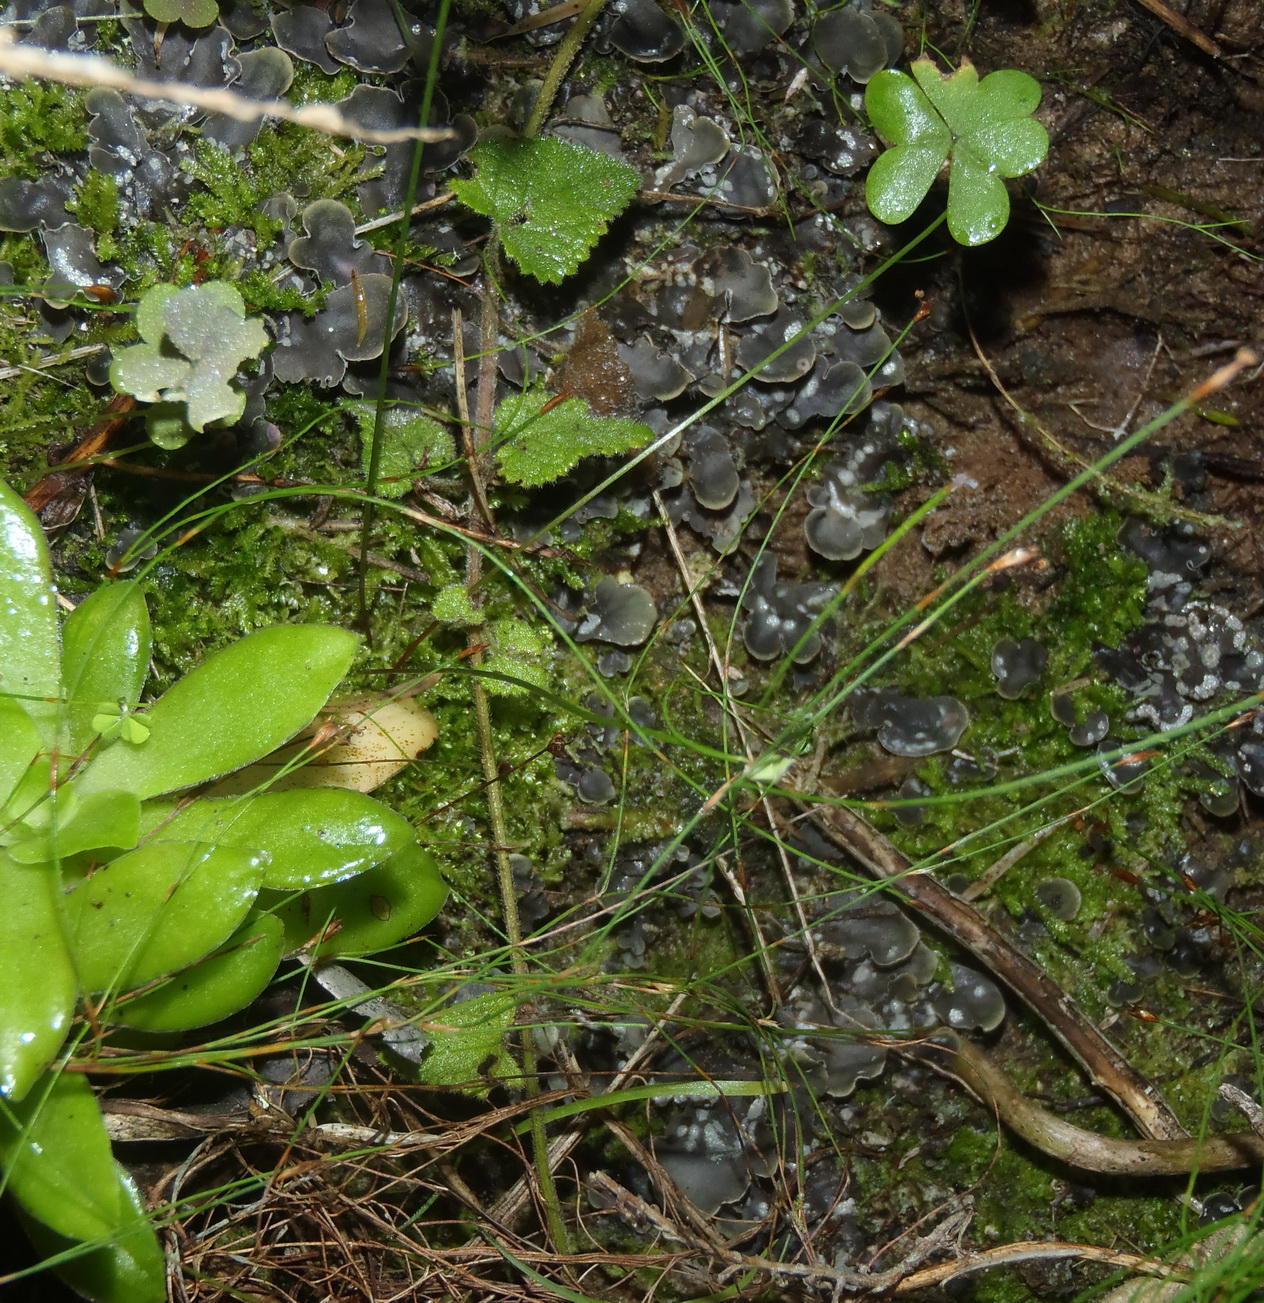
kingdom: Fungi
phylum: Ascomycota
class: Lecanoromycetes
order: Peltigerales
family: Peltigeraceae
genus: Peltigera
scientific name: Peltigera didactyla
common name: Alternating dog lichen
